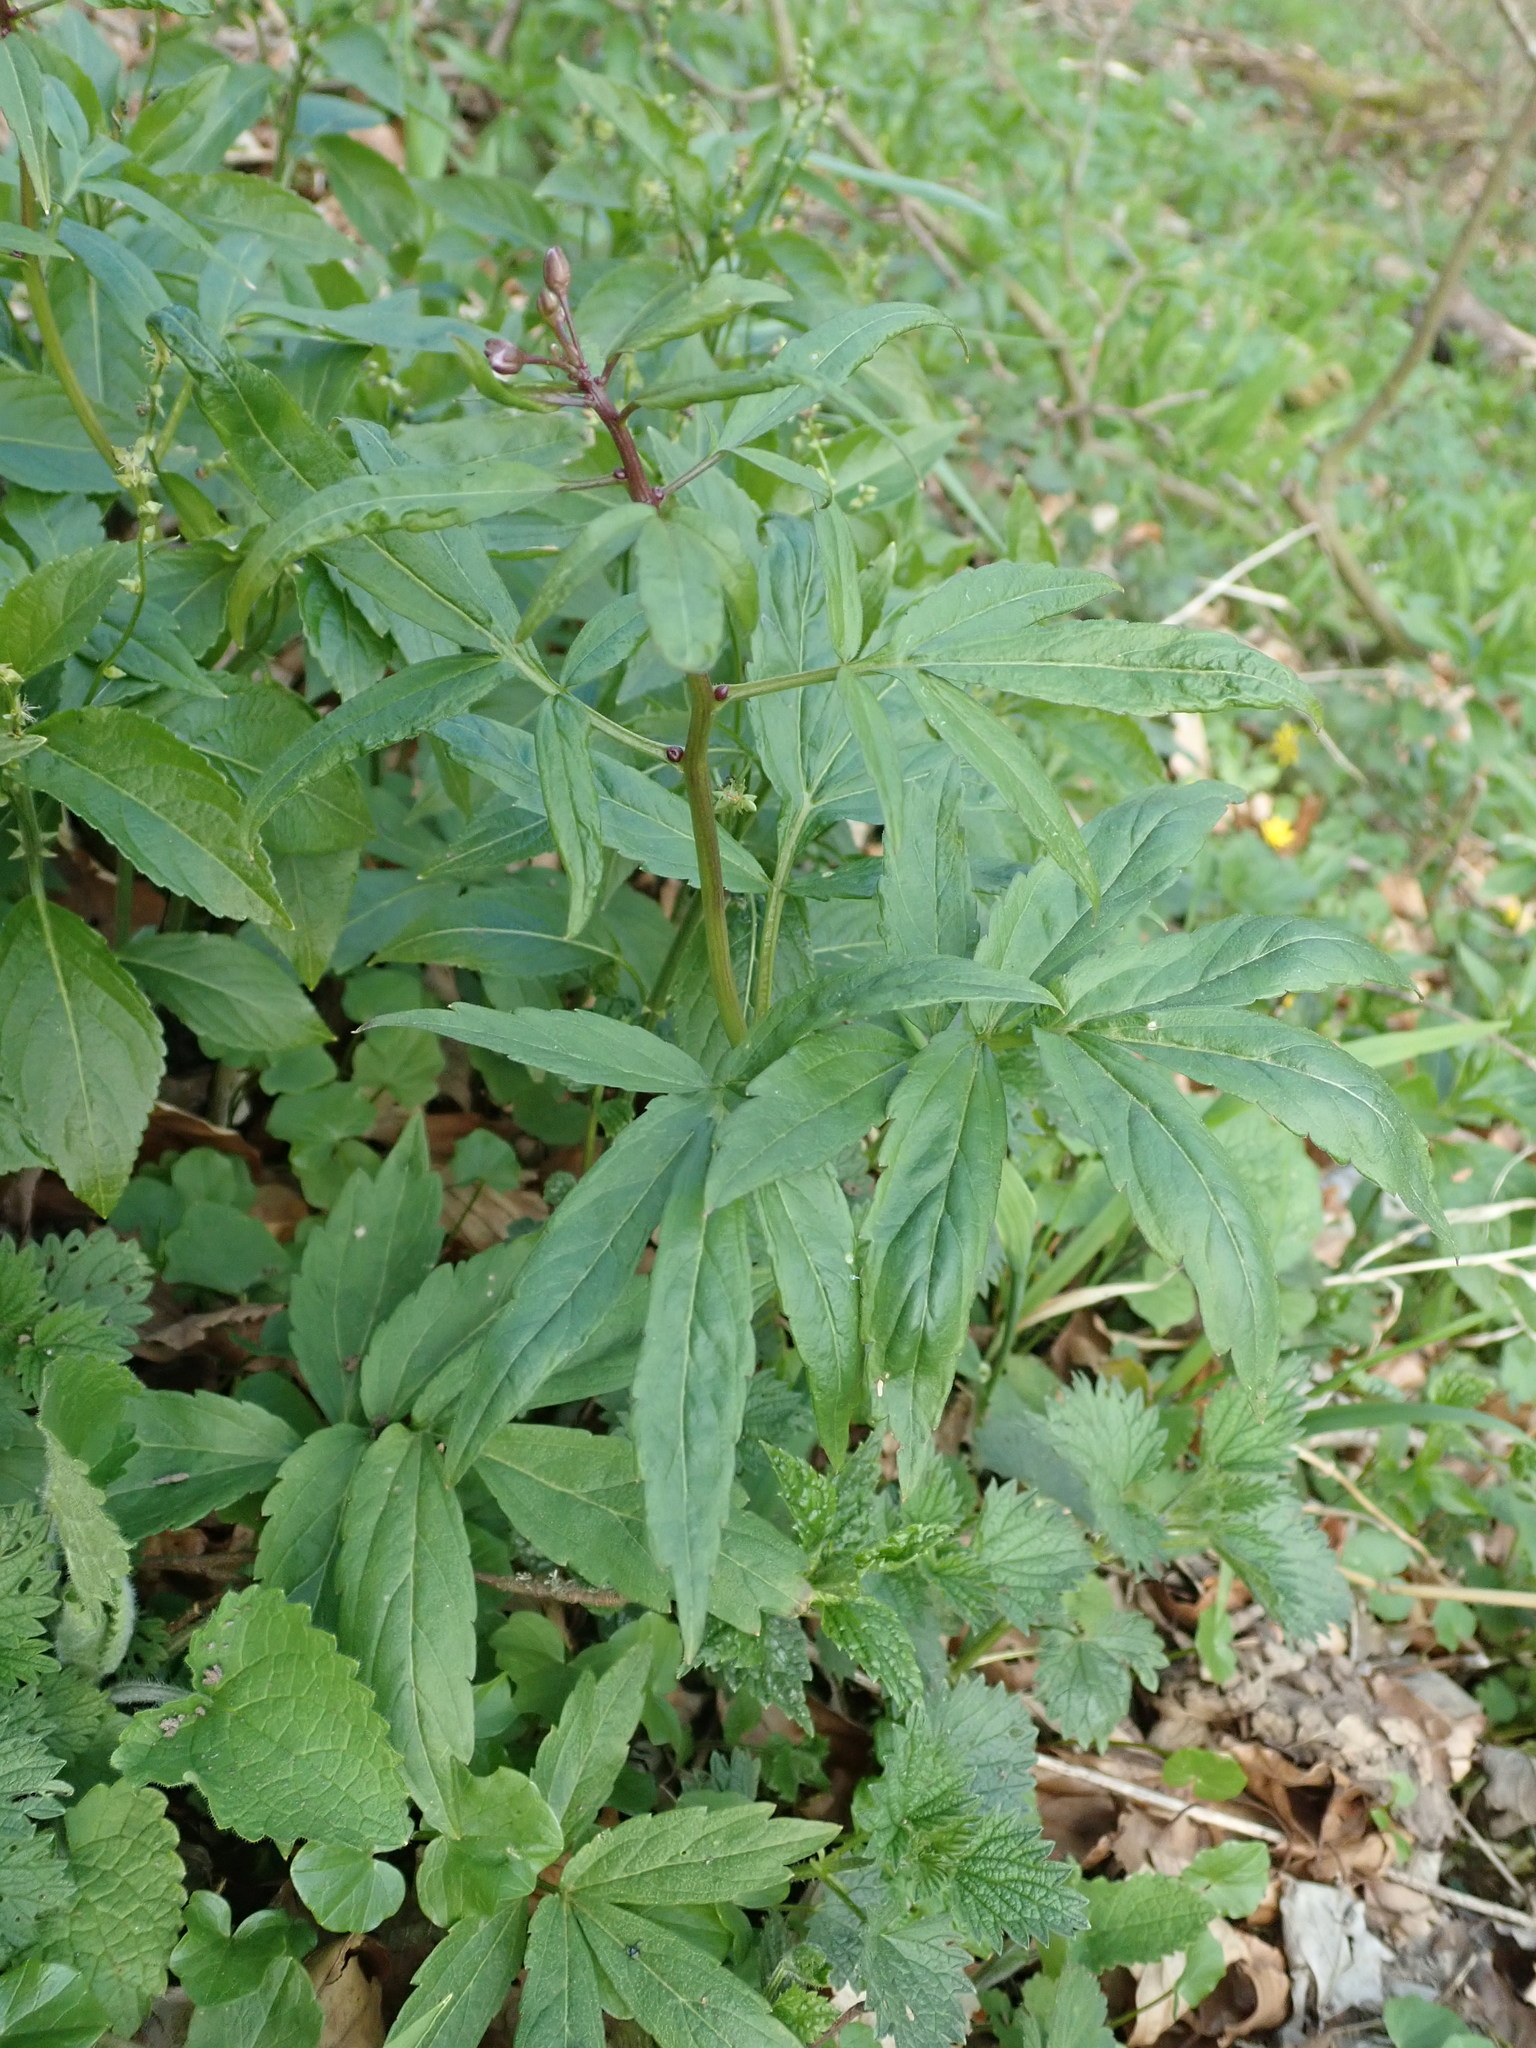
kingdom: Plantae
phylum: Tracheophyta
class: Magnoliopsida
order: Brassicales
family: Brassicaceae
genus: Cardamine
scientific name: Cardamine bulbifera
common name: Coralroot bittercress
